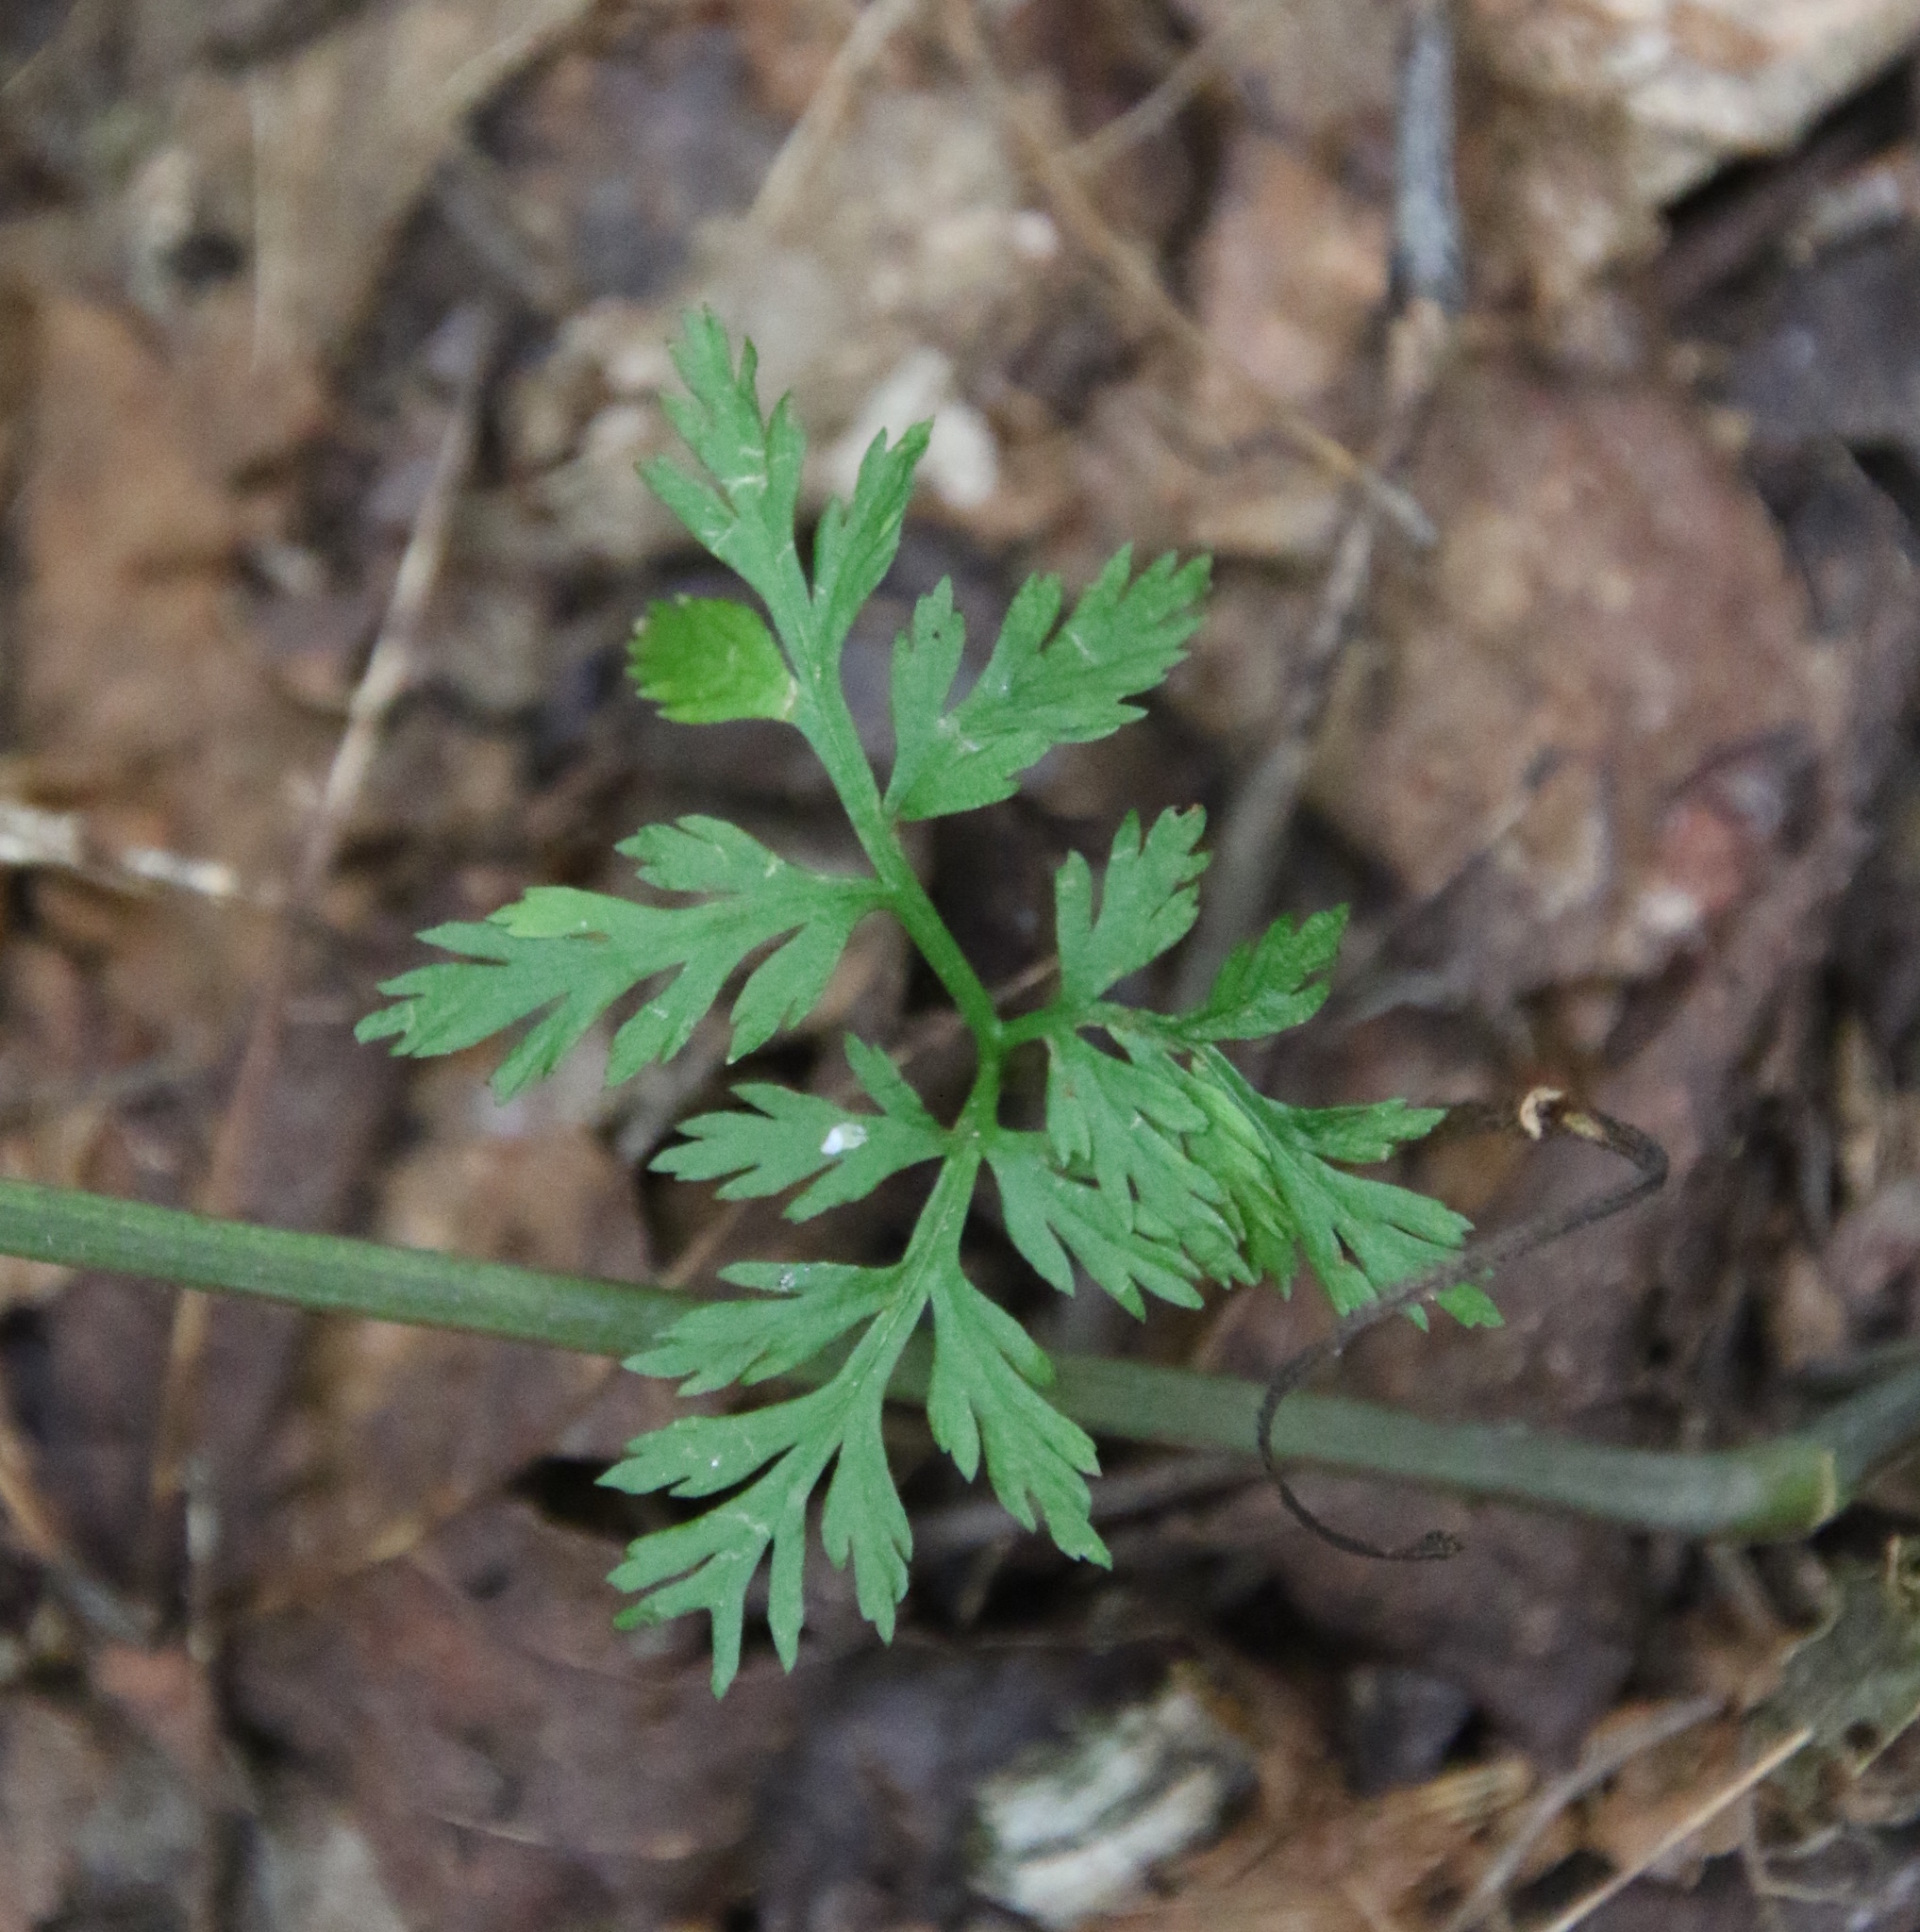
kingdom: Plantae
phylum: Tracheophyta
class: Polypodiopsida
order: Ophioglossales
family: Ophioglossaceae
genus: Botrypus
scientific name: Botrypus virginianus
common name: Common grapefern
